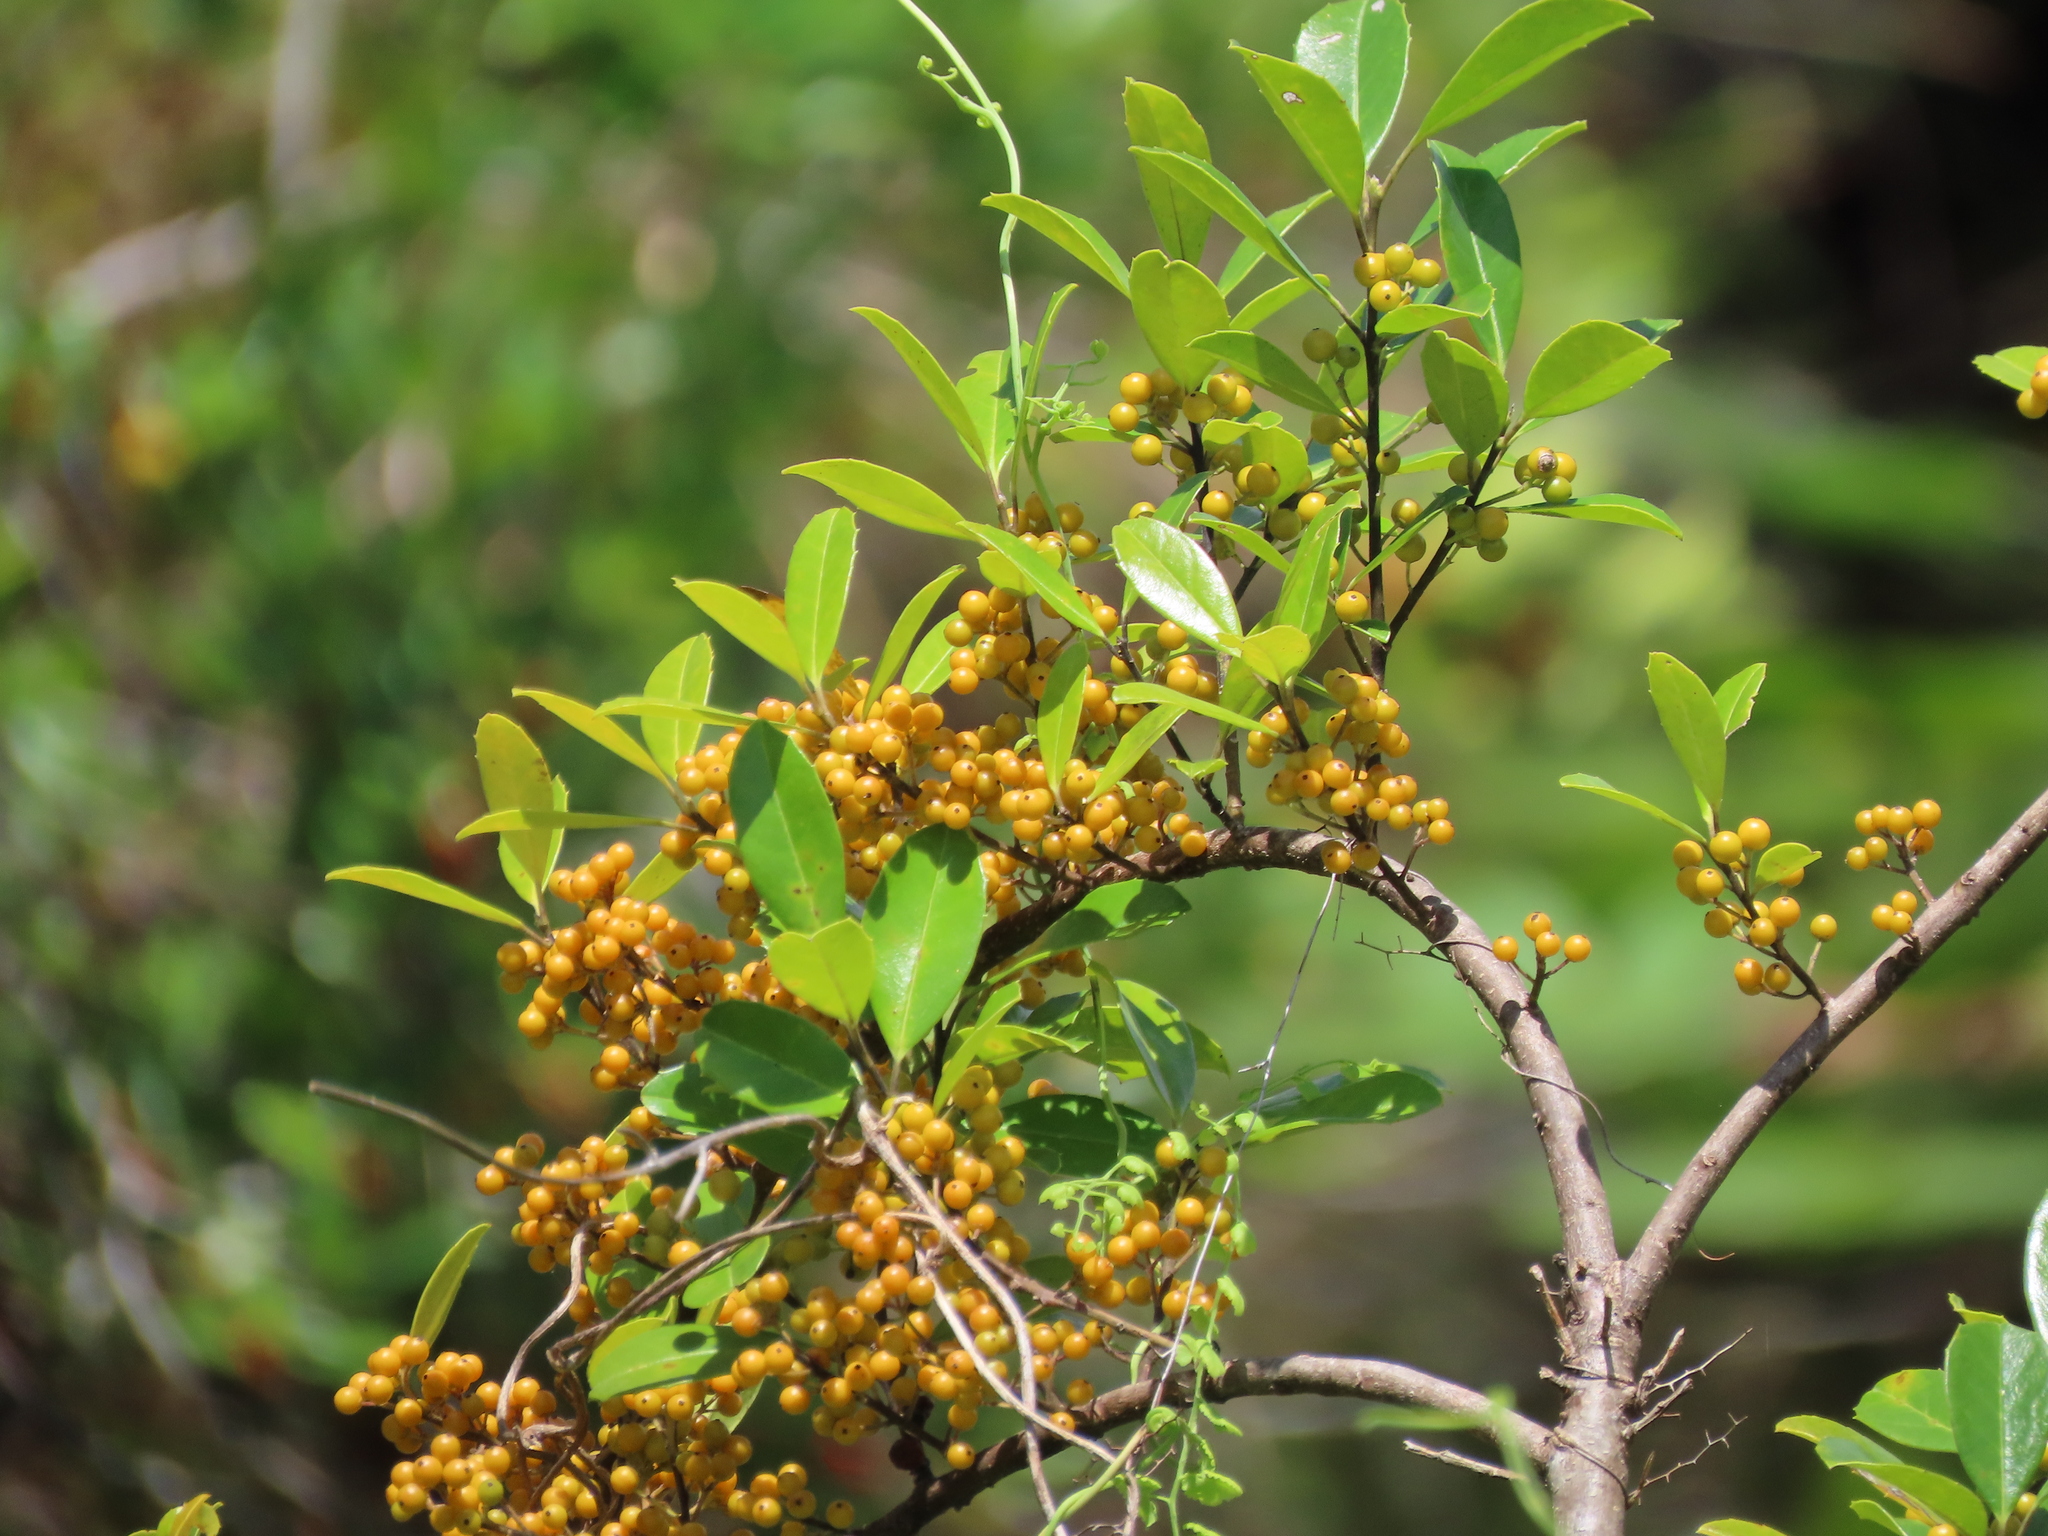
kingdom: Plantae
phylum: Tracheophyta
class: Magnoliopsida
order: Aquifoliales
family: Aquifoliaceae
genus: Ilex
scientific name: Ilex cassine
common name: Dahoon
